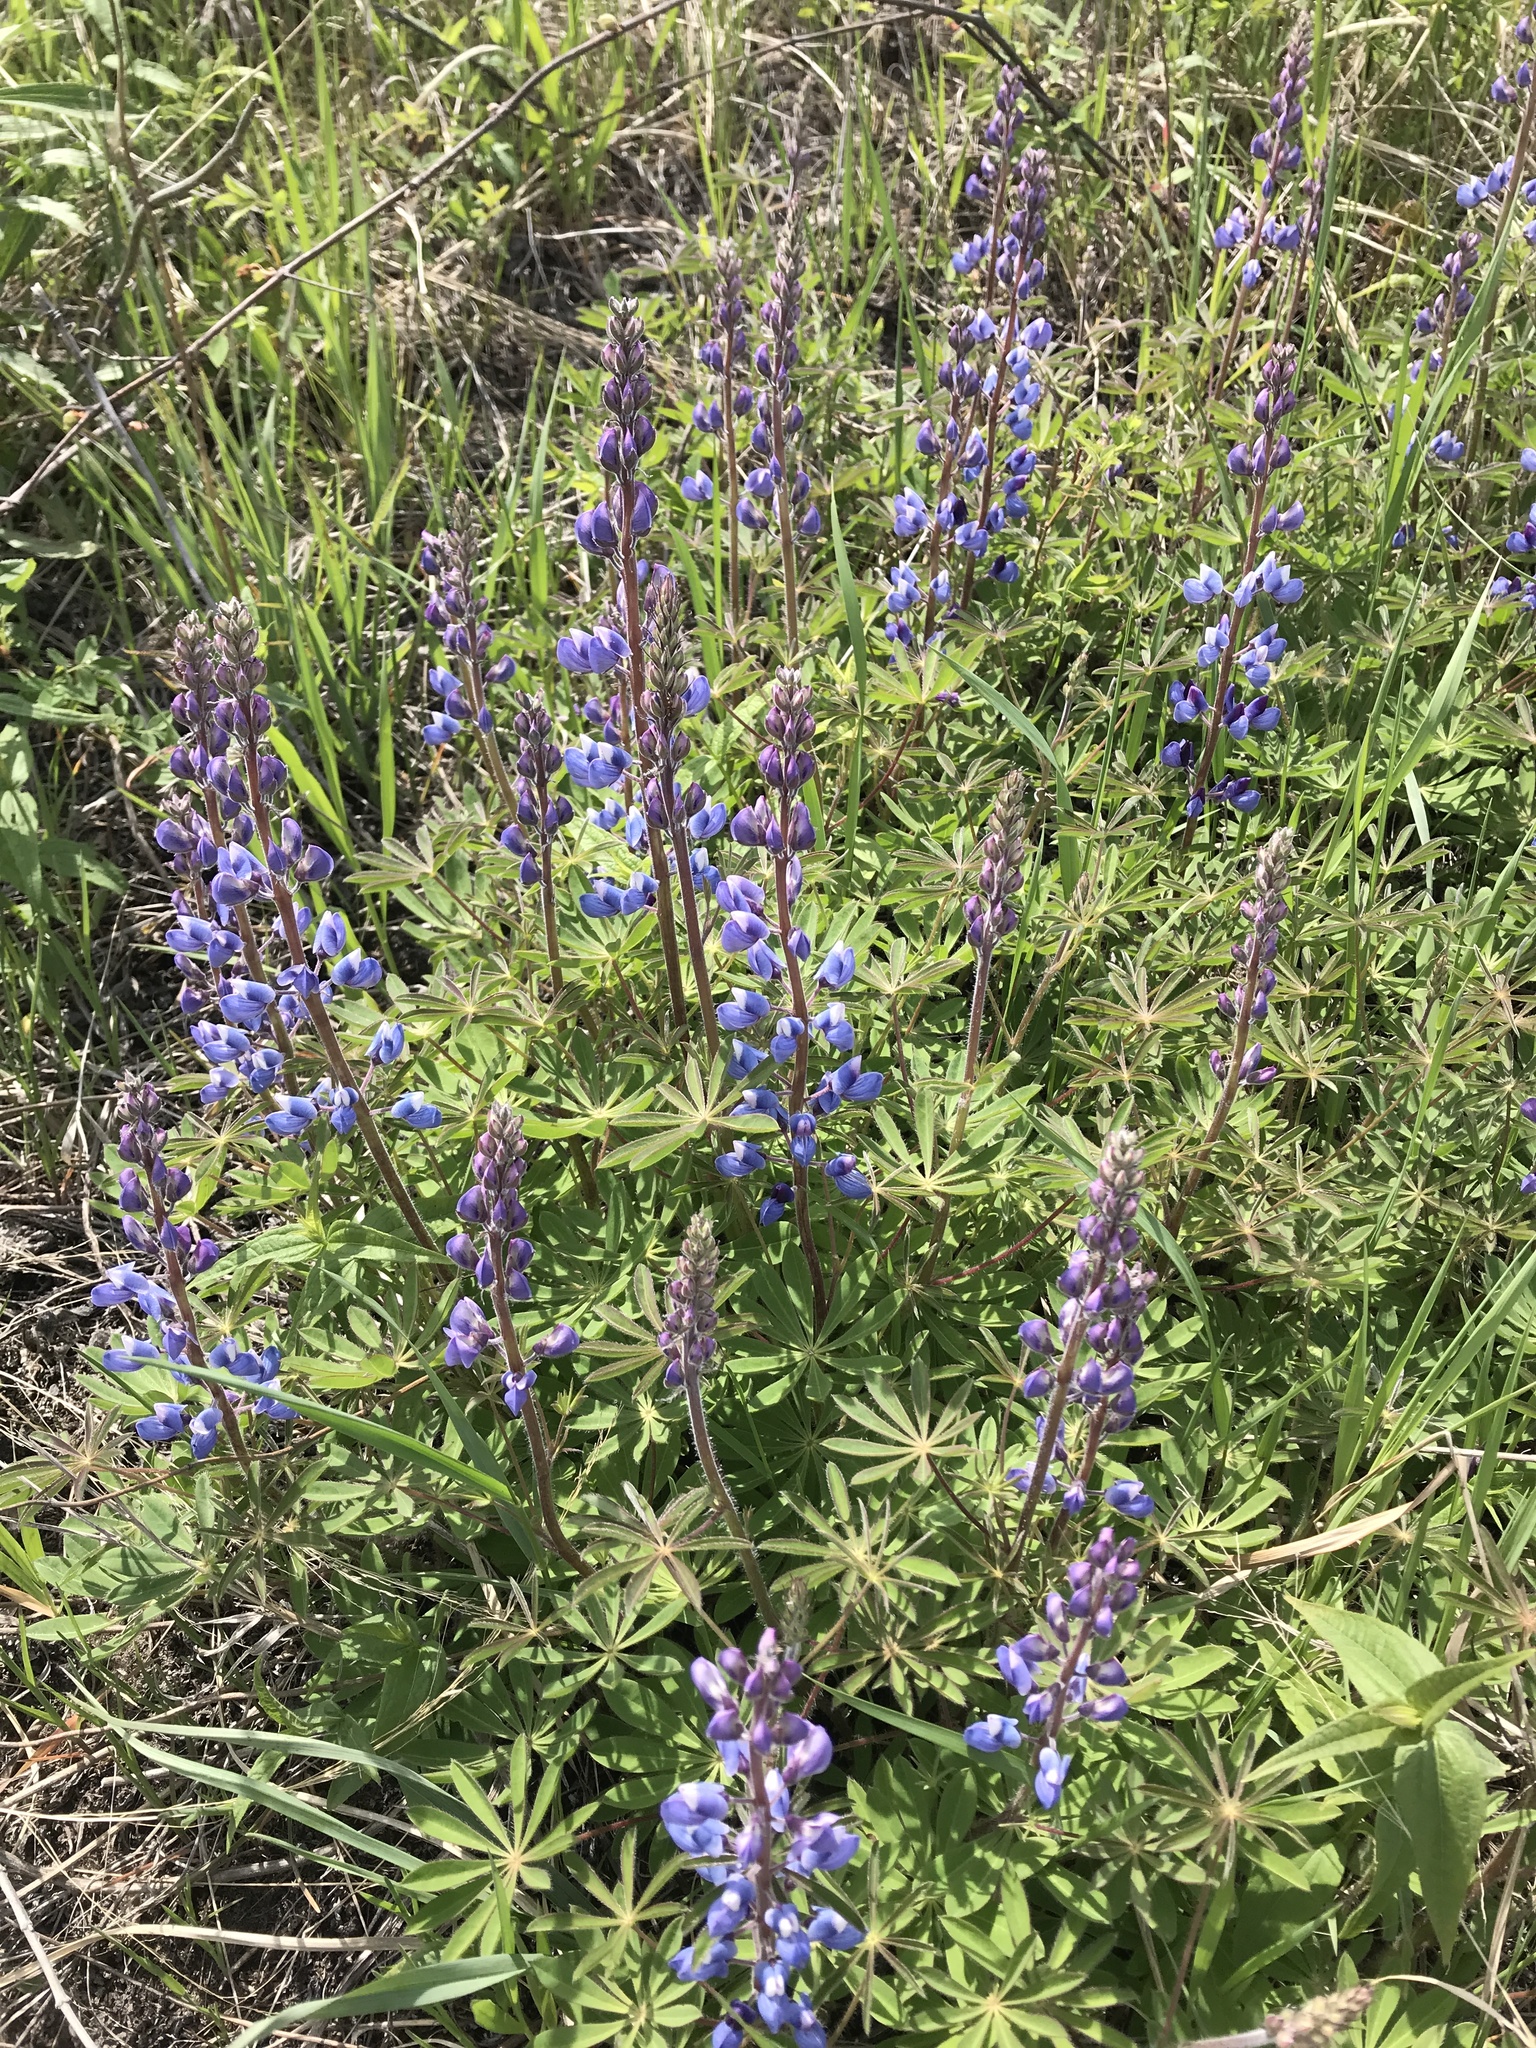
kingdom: Plantae
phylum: Tracheophyta
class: Magnoliopsida
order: Fabales
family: Fabaceae
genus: Lupinus
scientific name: Lupinus perennis
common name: Sundial lupine
